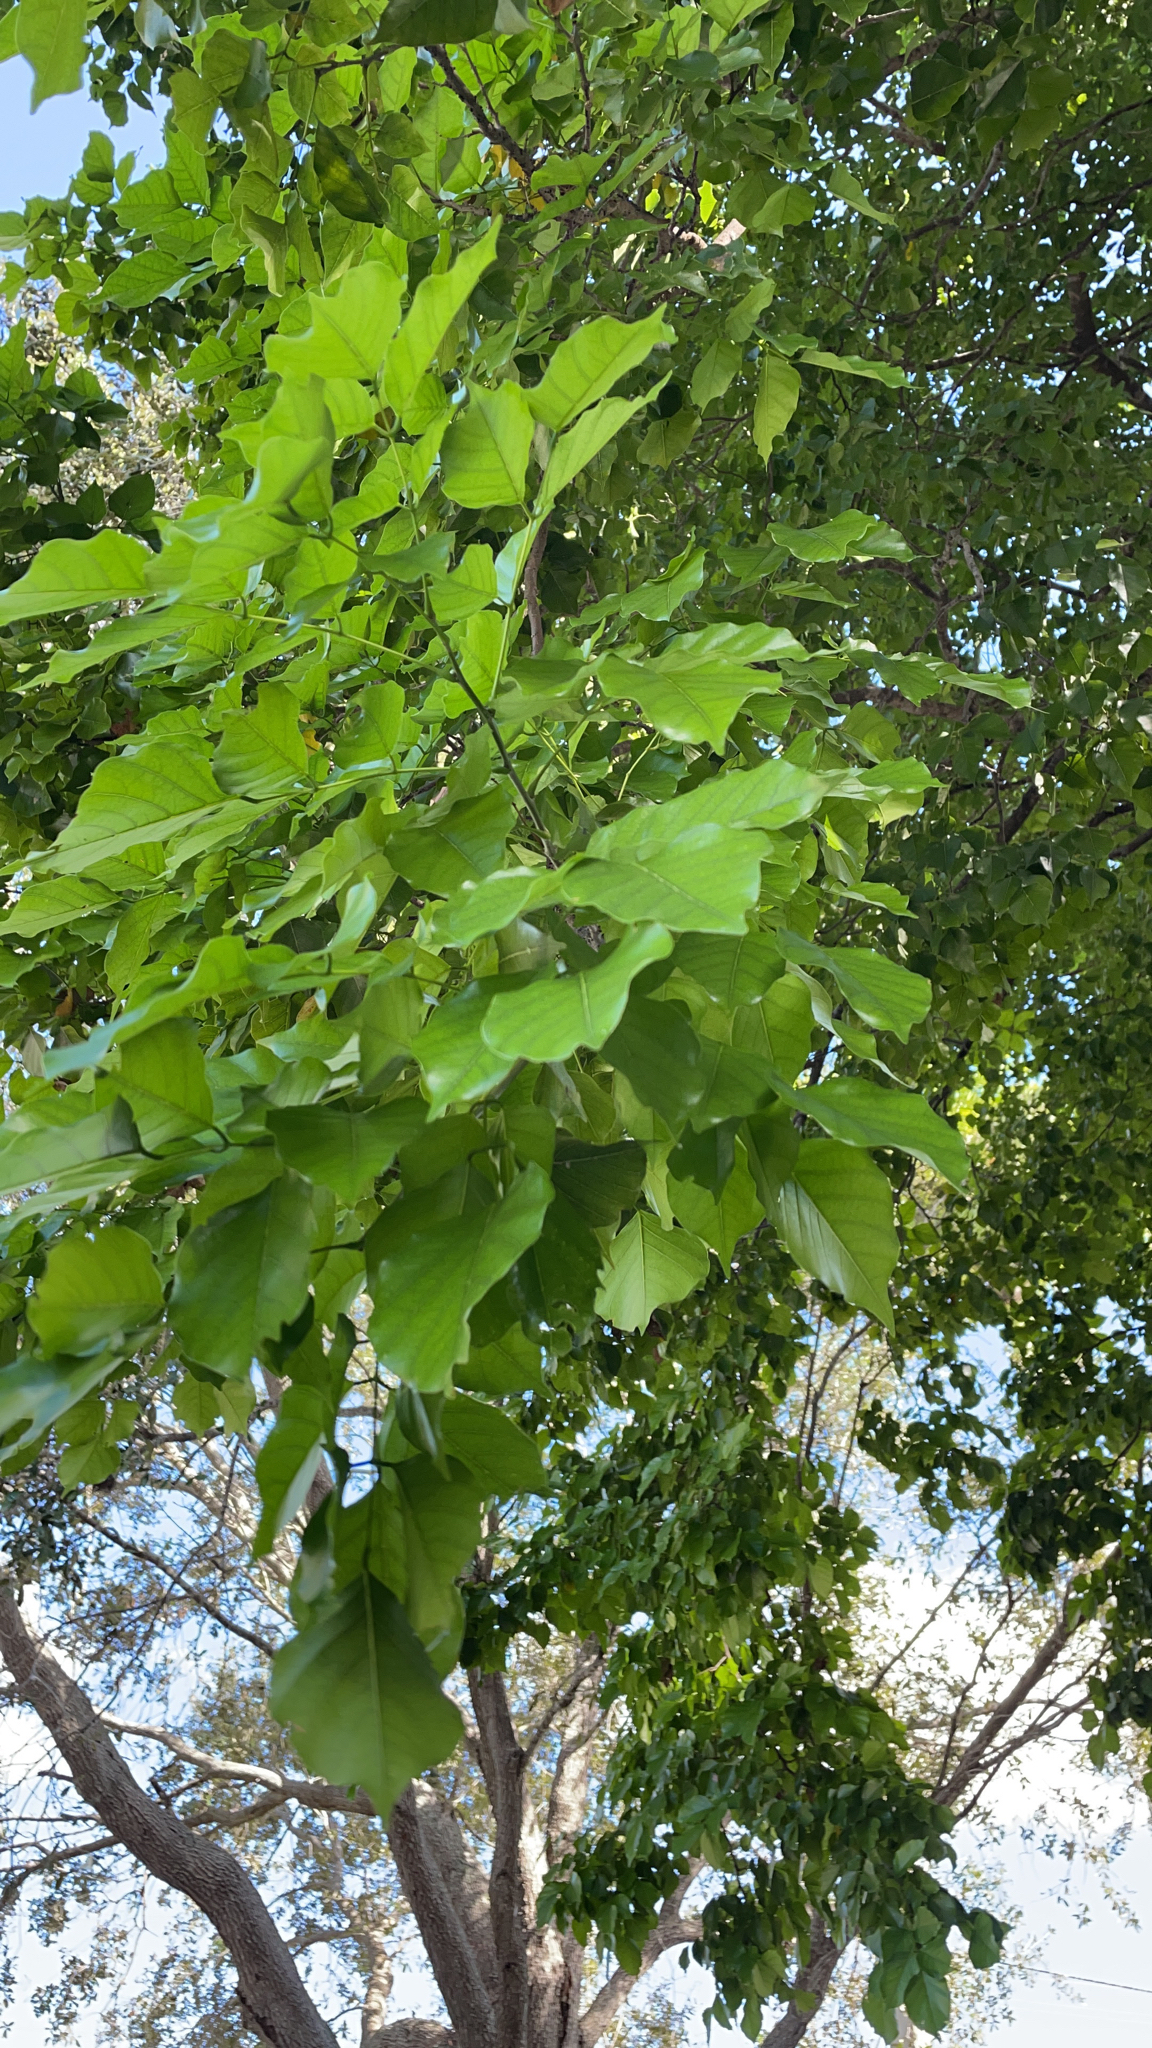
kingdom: Plantae
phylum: Tracheophyta
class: Magnoliopsida
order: Fabales
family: Fabaceae
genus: Pongamia
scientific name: Pongamia pinnata
